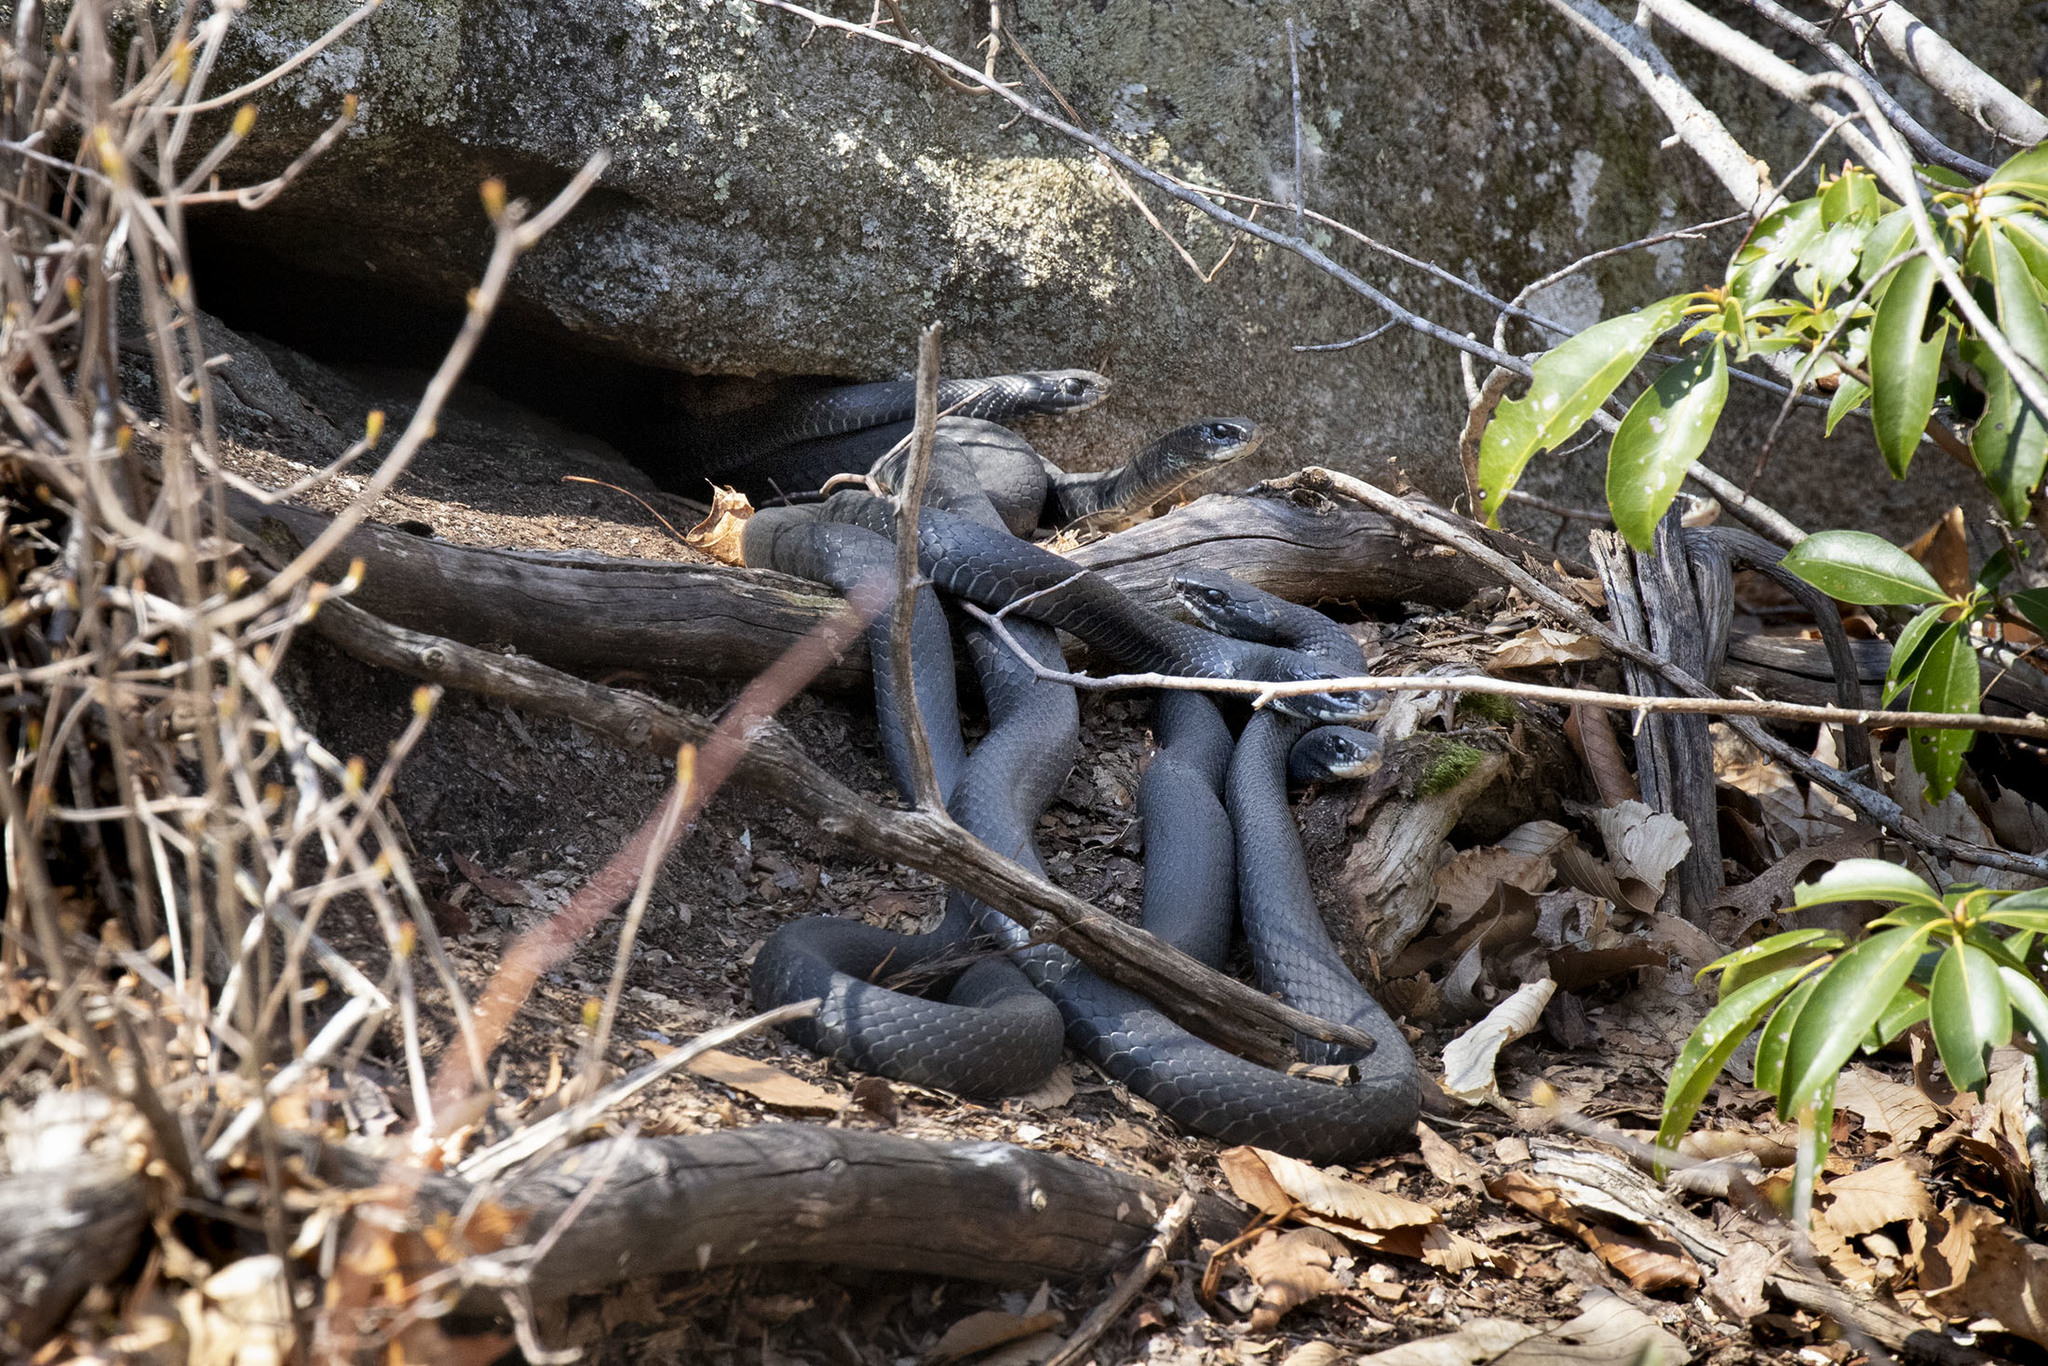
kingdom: Animalia
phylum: Chordata
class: Squamata
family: Colubridae
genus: Coluber
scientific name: Coluber constrictor
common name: Eastern racer
